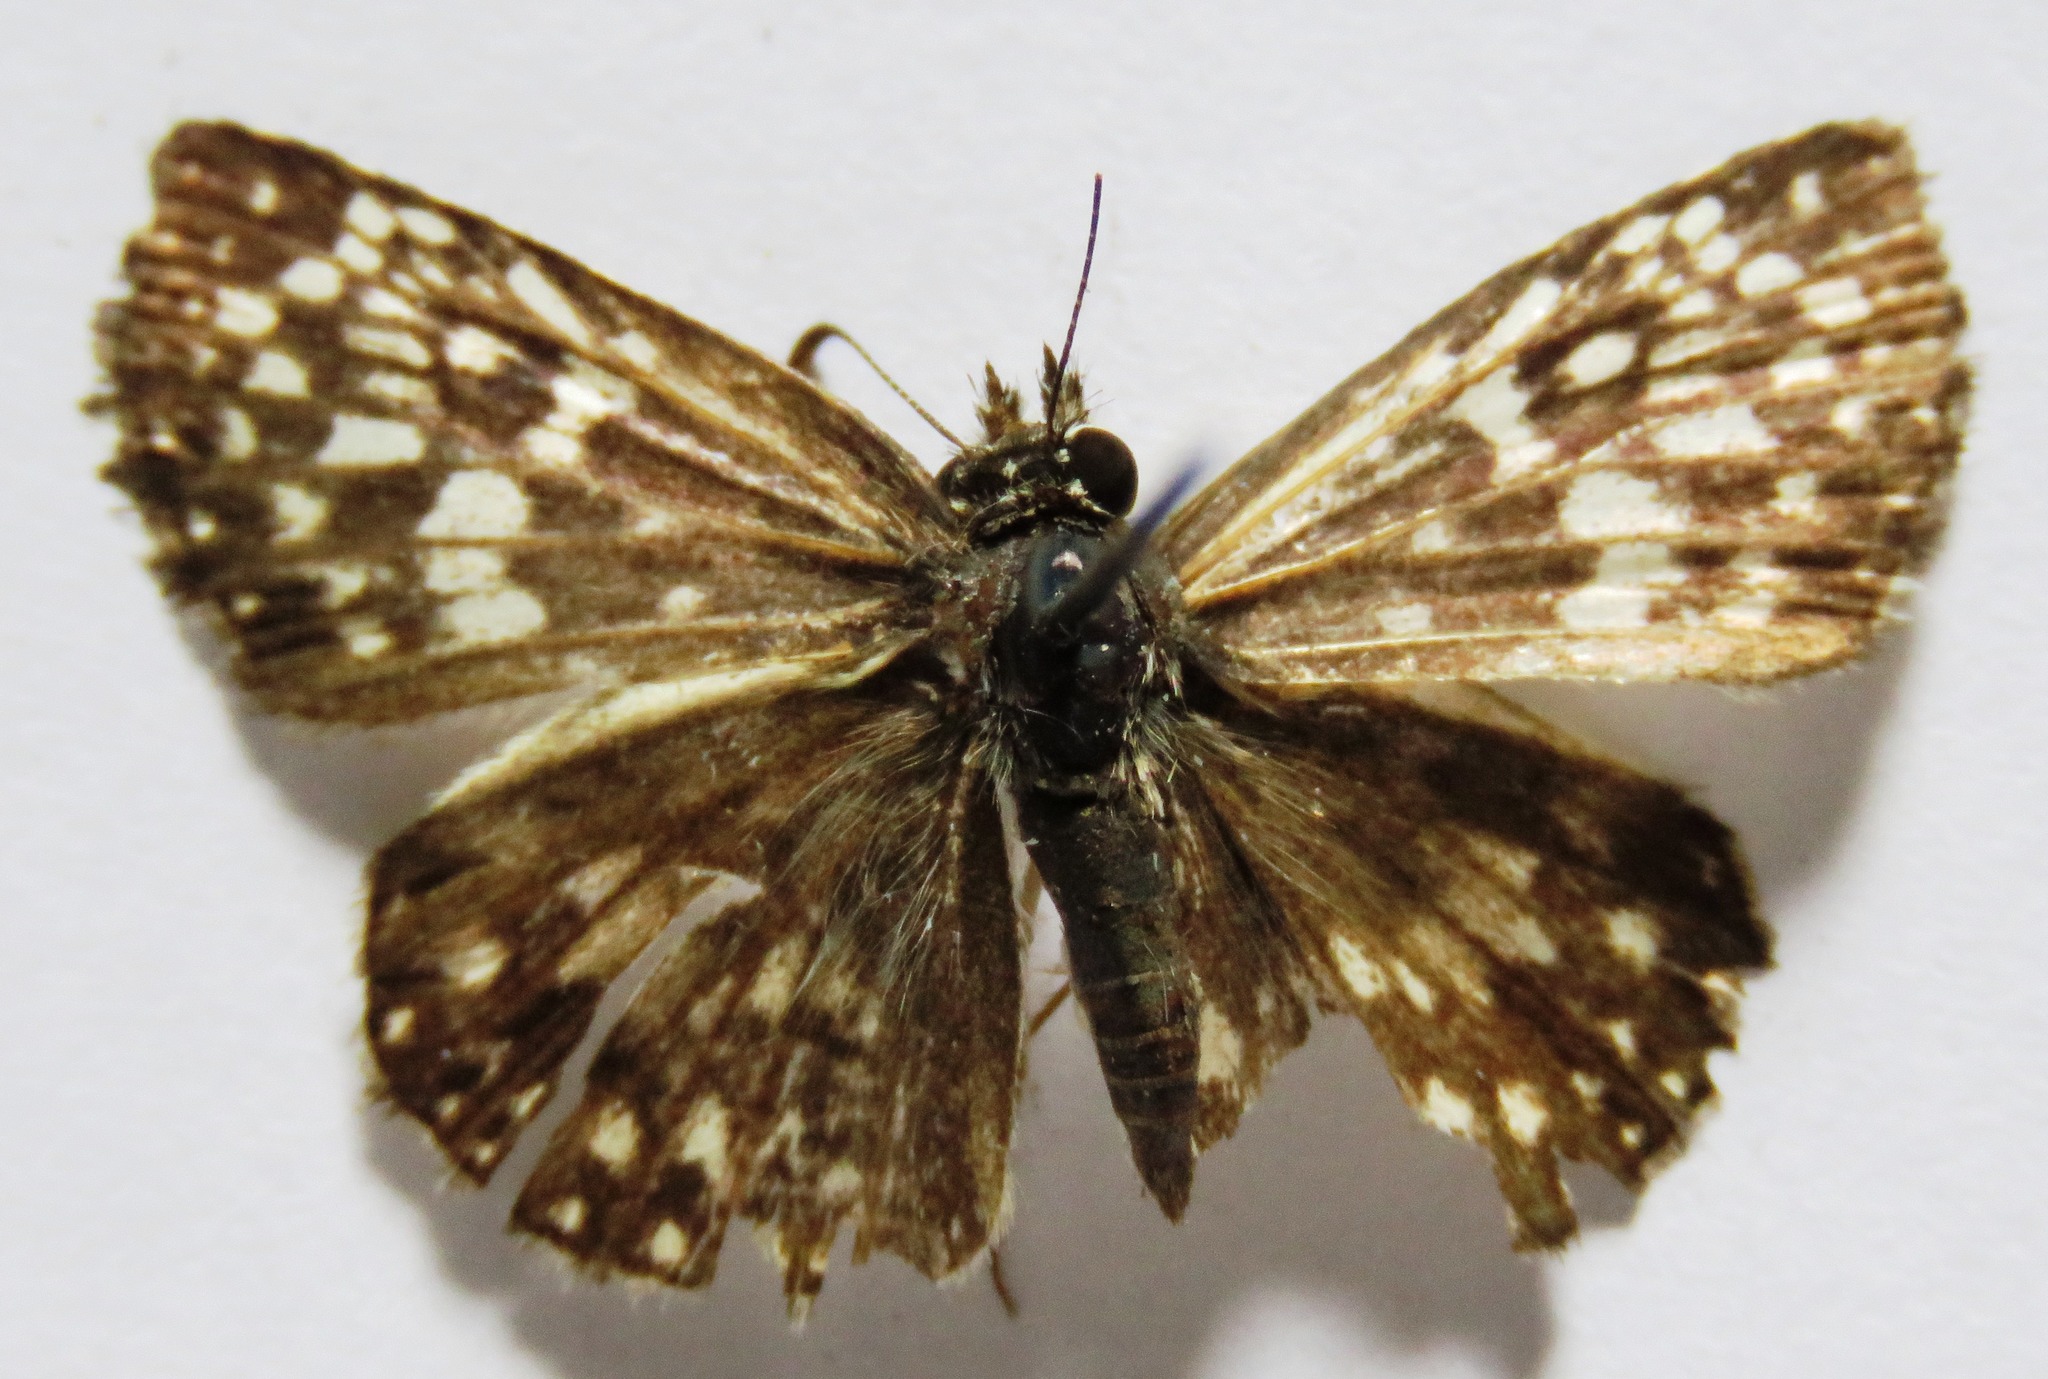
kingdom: Animalia
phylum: Arthropoda
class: Insecta
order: Lepidoptera
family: Hesperiidae
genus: Pyrgus
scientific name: Pyrgus oileus
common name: Tropical checkered-skipper
